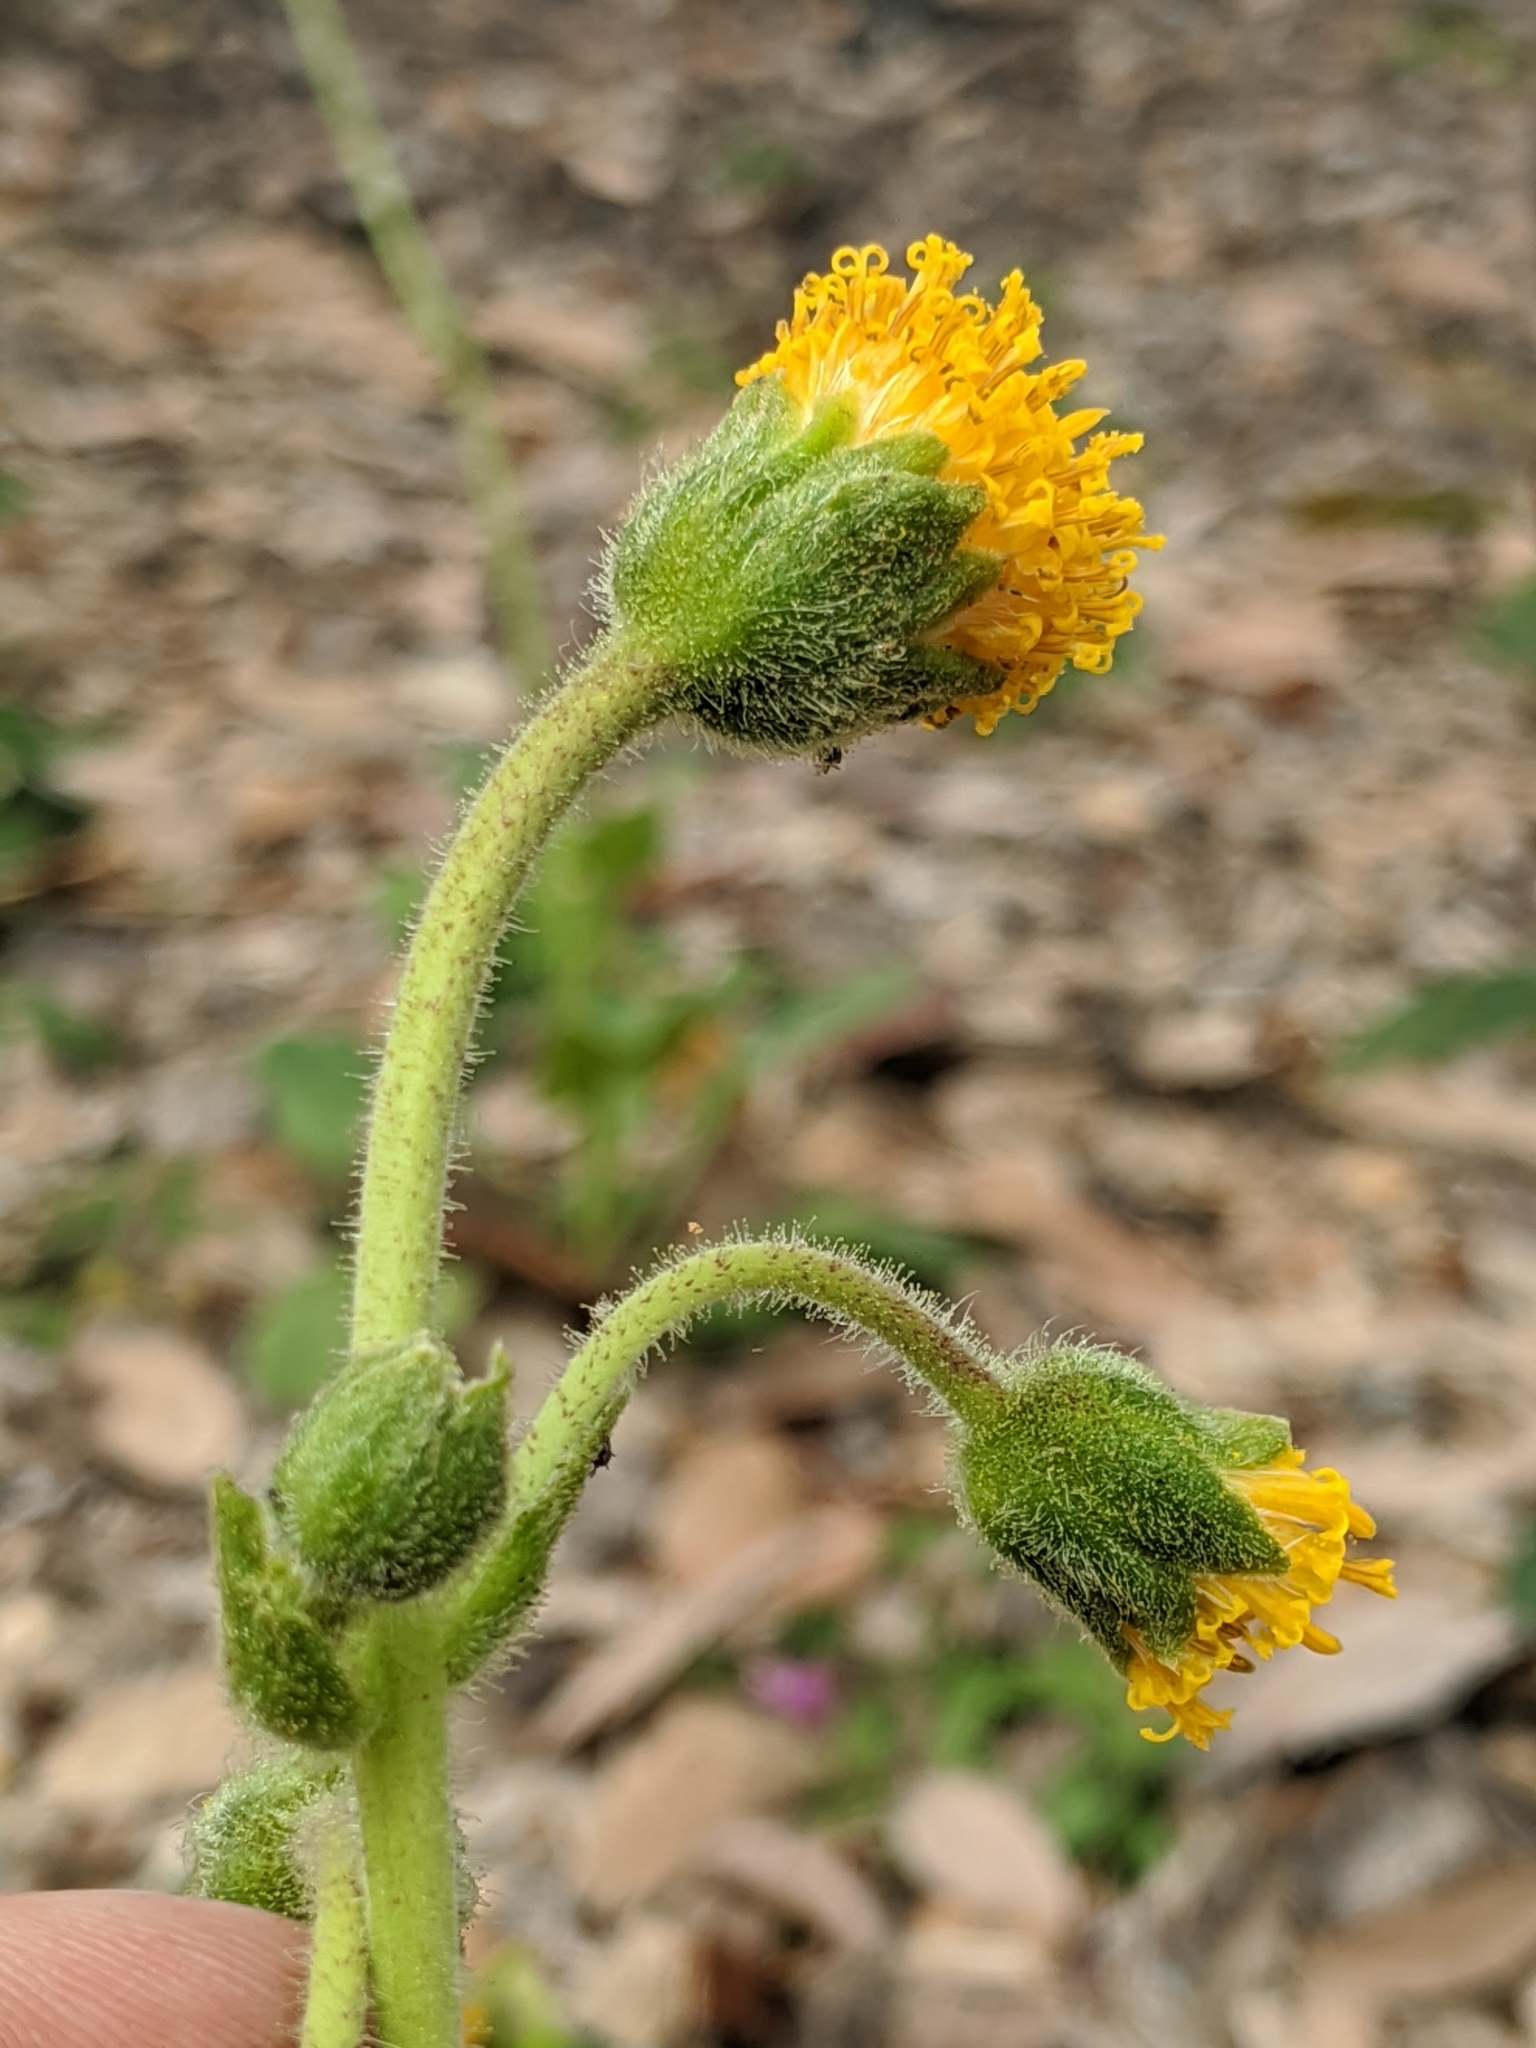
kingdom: Plantae
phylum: Tracheophyta
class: Magnoliopsida
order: Asterales
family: Asteraceae
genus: Arnica
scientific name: Arnica discoidea
